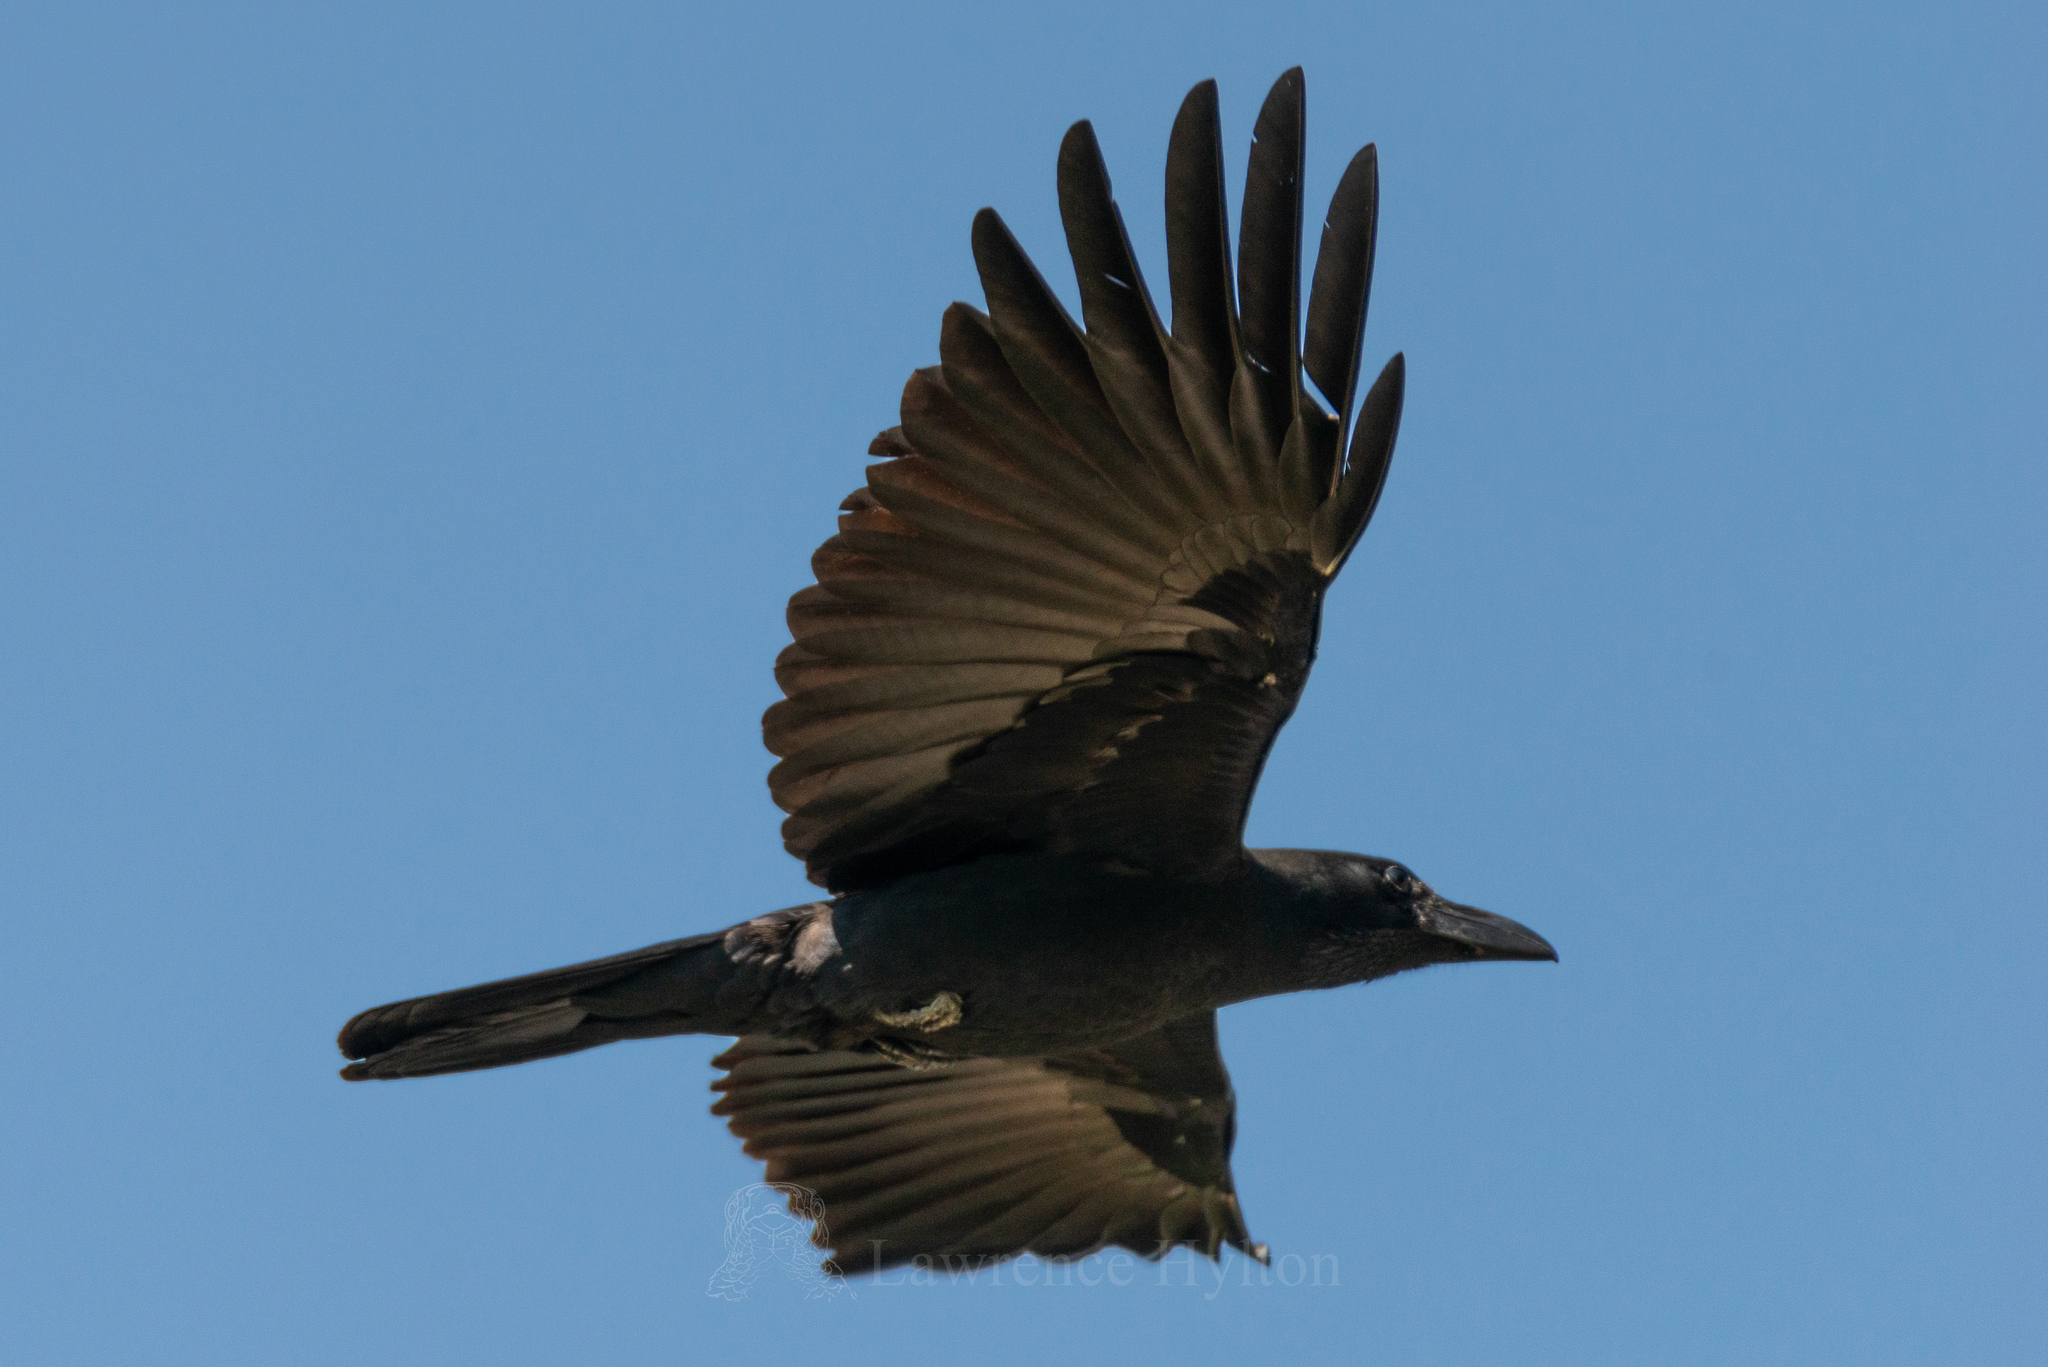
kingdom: Animalia
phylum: Chordata
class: Aves
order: Passeriformes
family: Corvidae
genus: Corvus
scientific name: Corvus macrorhynchos
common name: Large-billed crow
